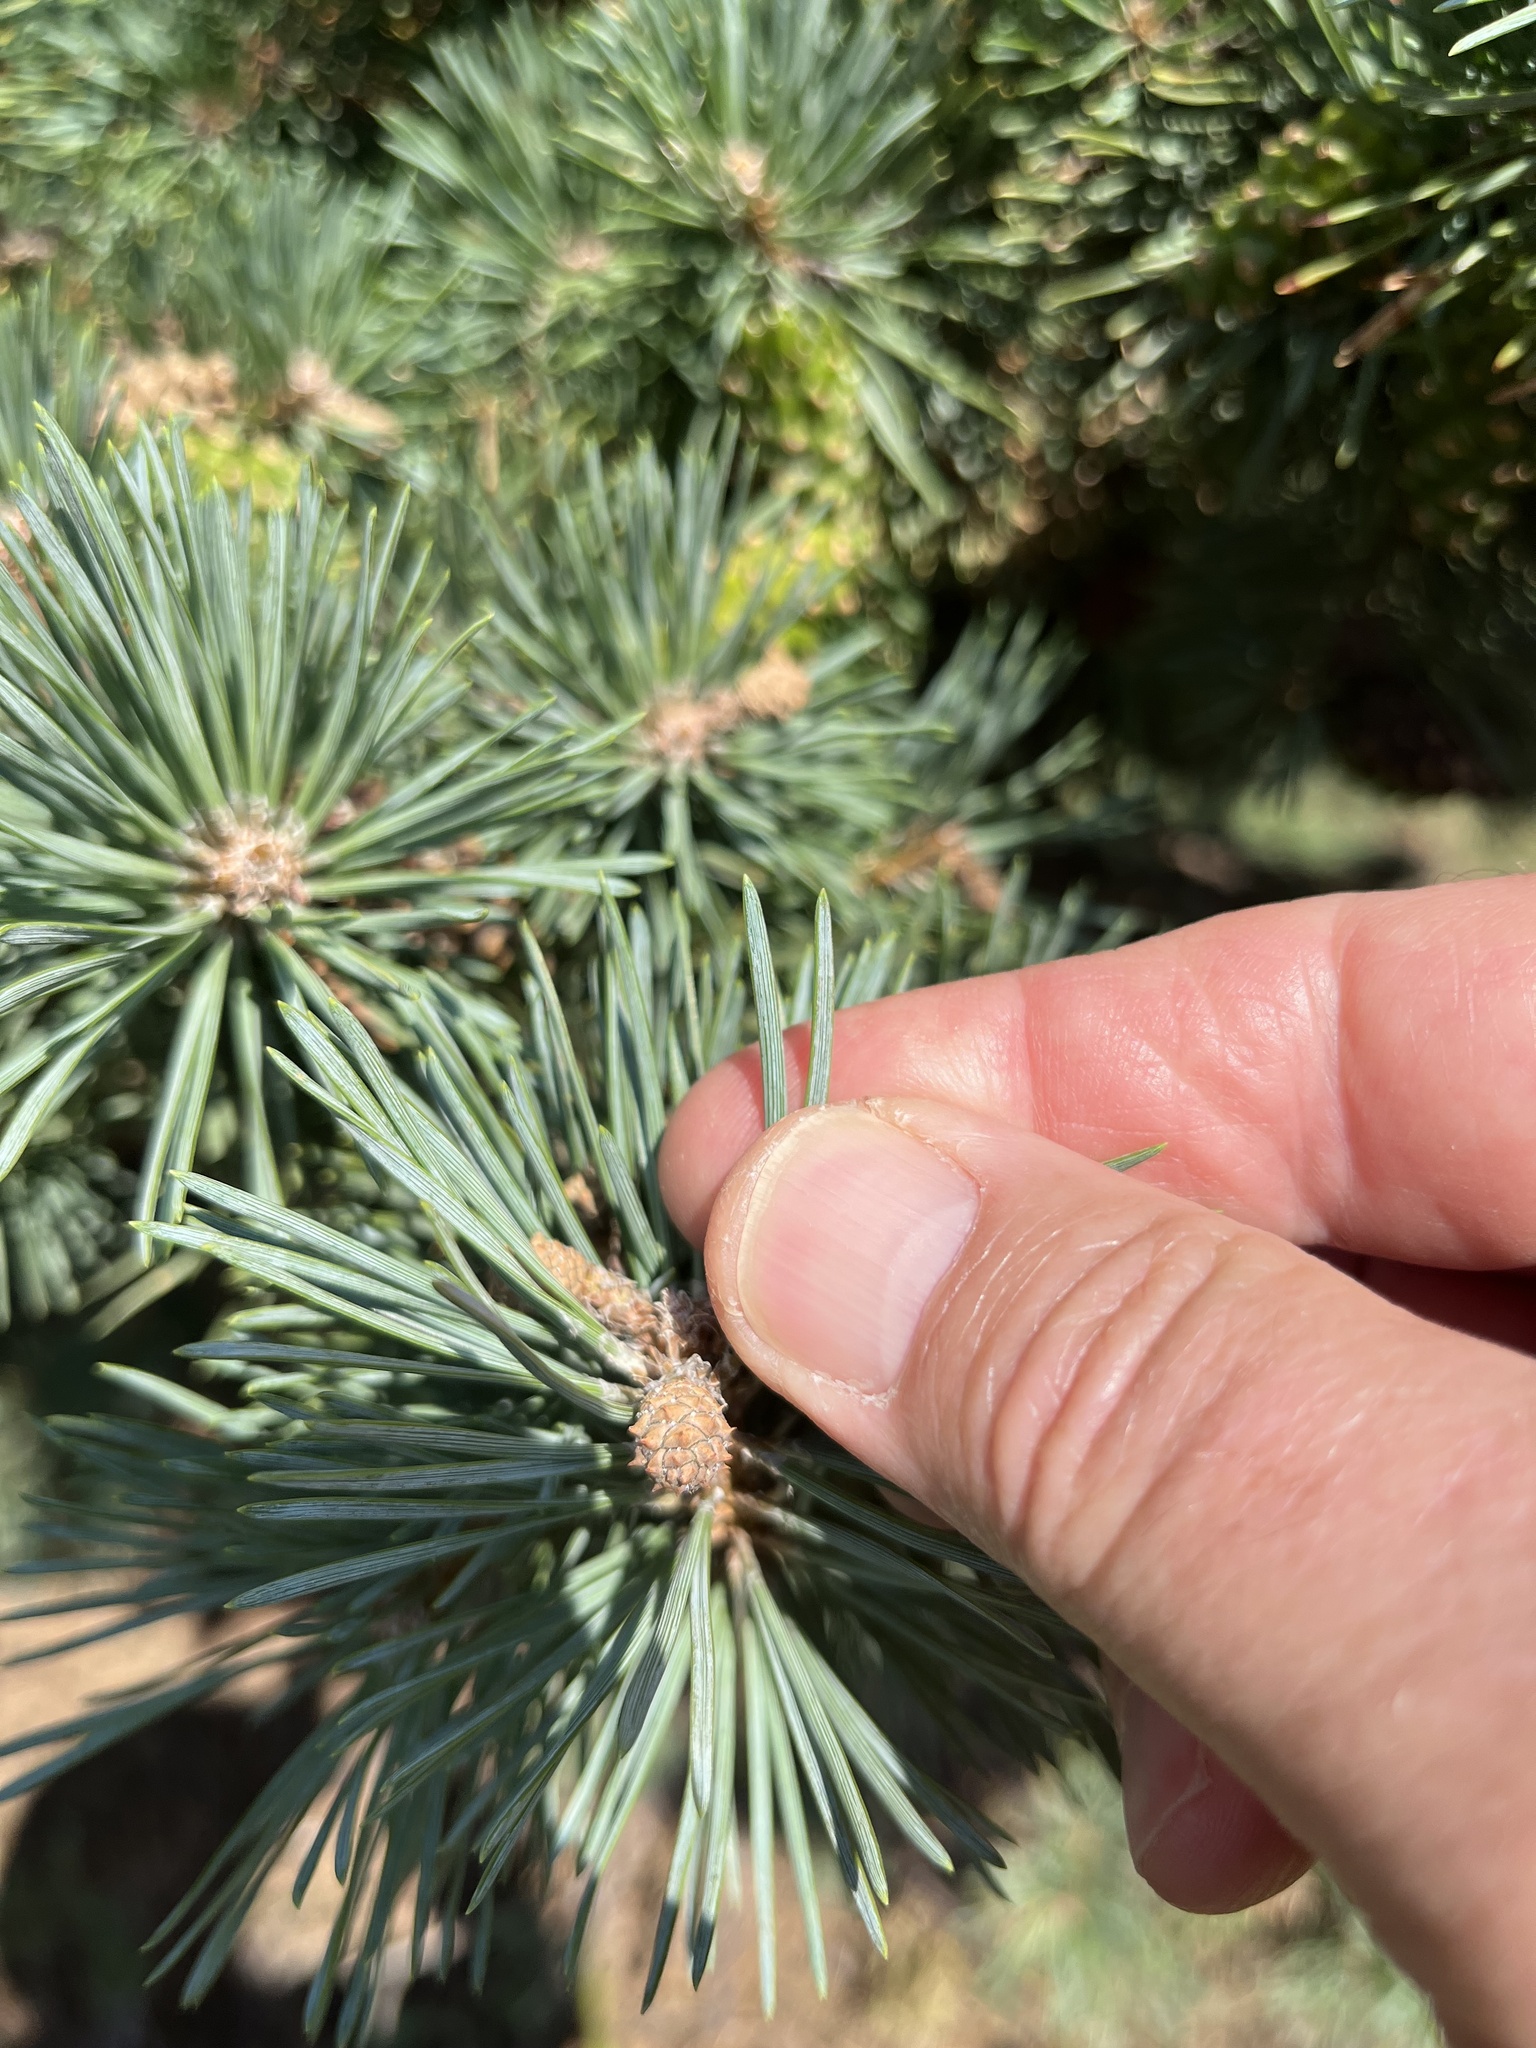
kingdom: Plantae
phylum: Tracheophyta
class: Pinopsida
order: Pinales
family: Pinaceae
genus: Pinus
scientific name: Pinus sylvestris
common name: Scots pine
